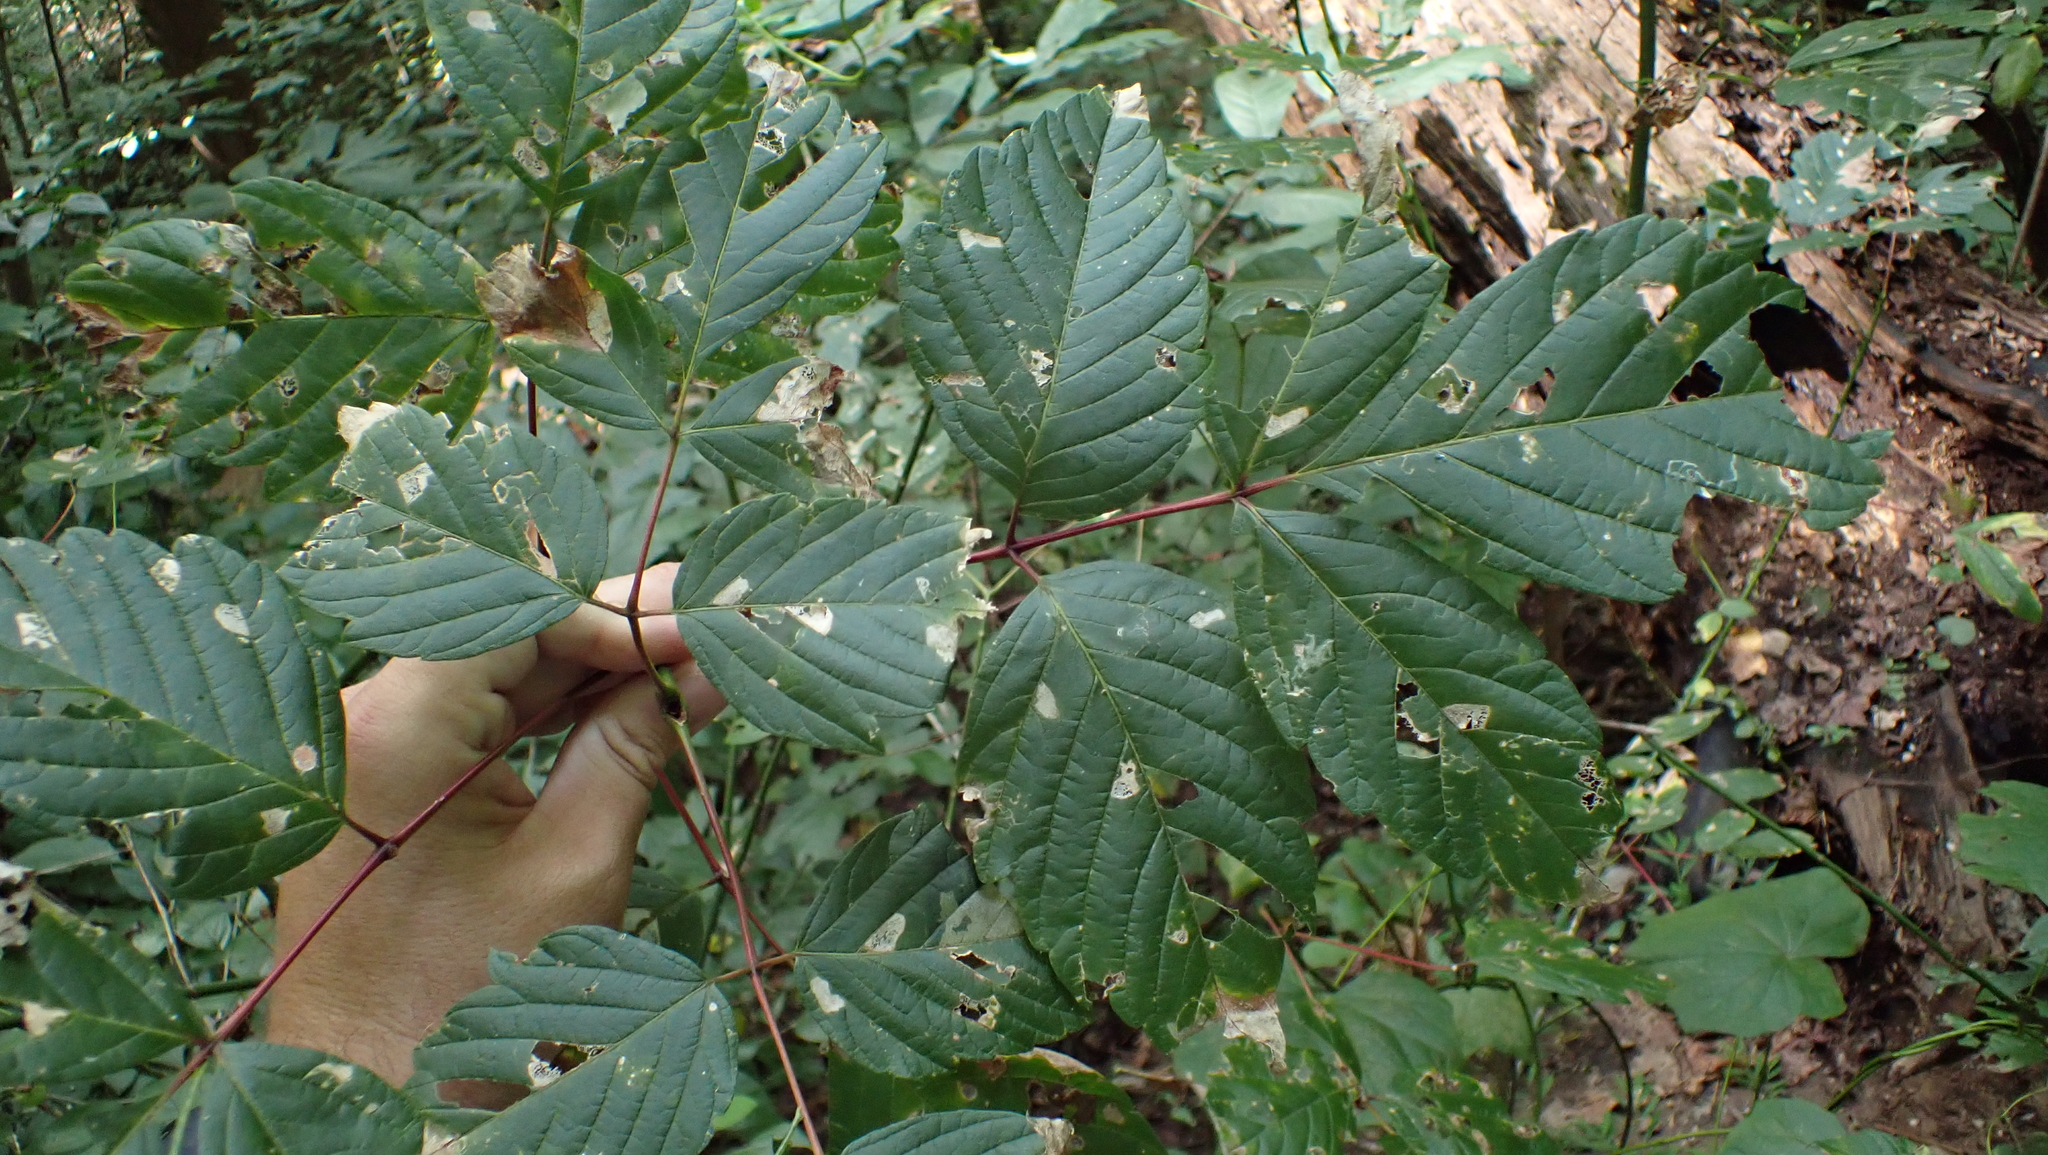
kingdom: Plantae
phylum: Tracheophyta
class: Magnoliopsida
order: Sapindales
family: Sapindaceae
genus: Acer
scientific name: Acer negundo
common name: Ashleaf maple
